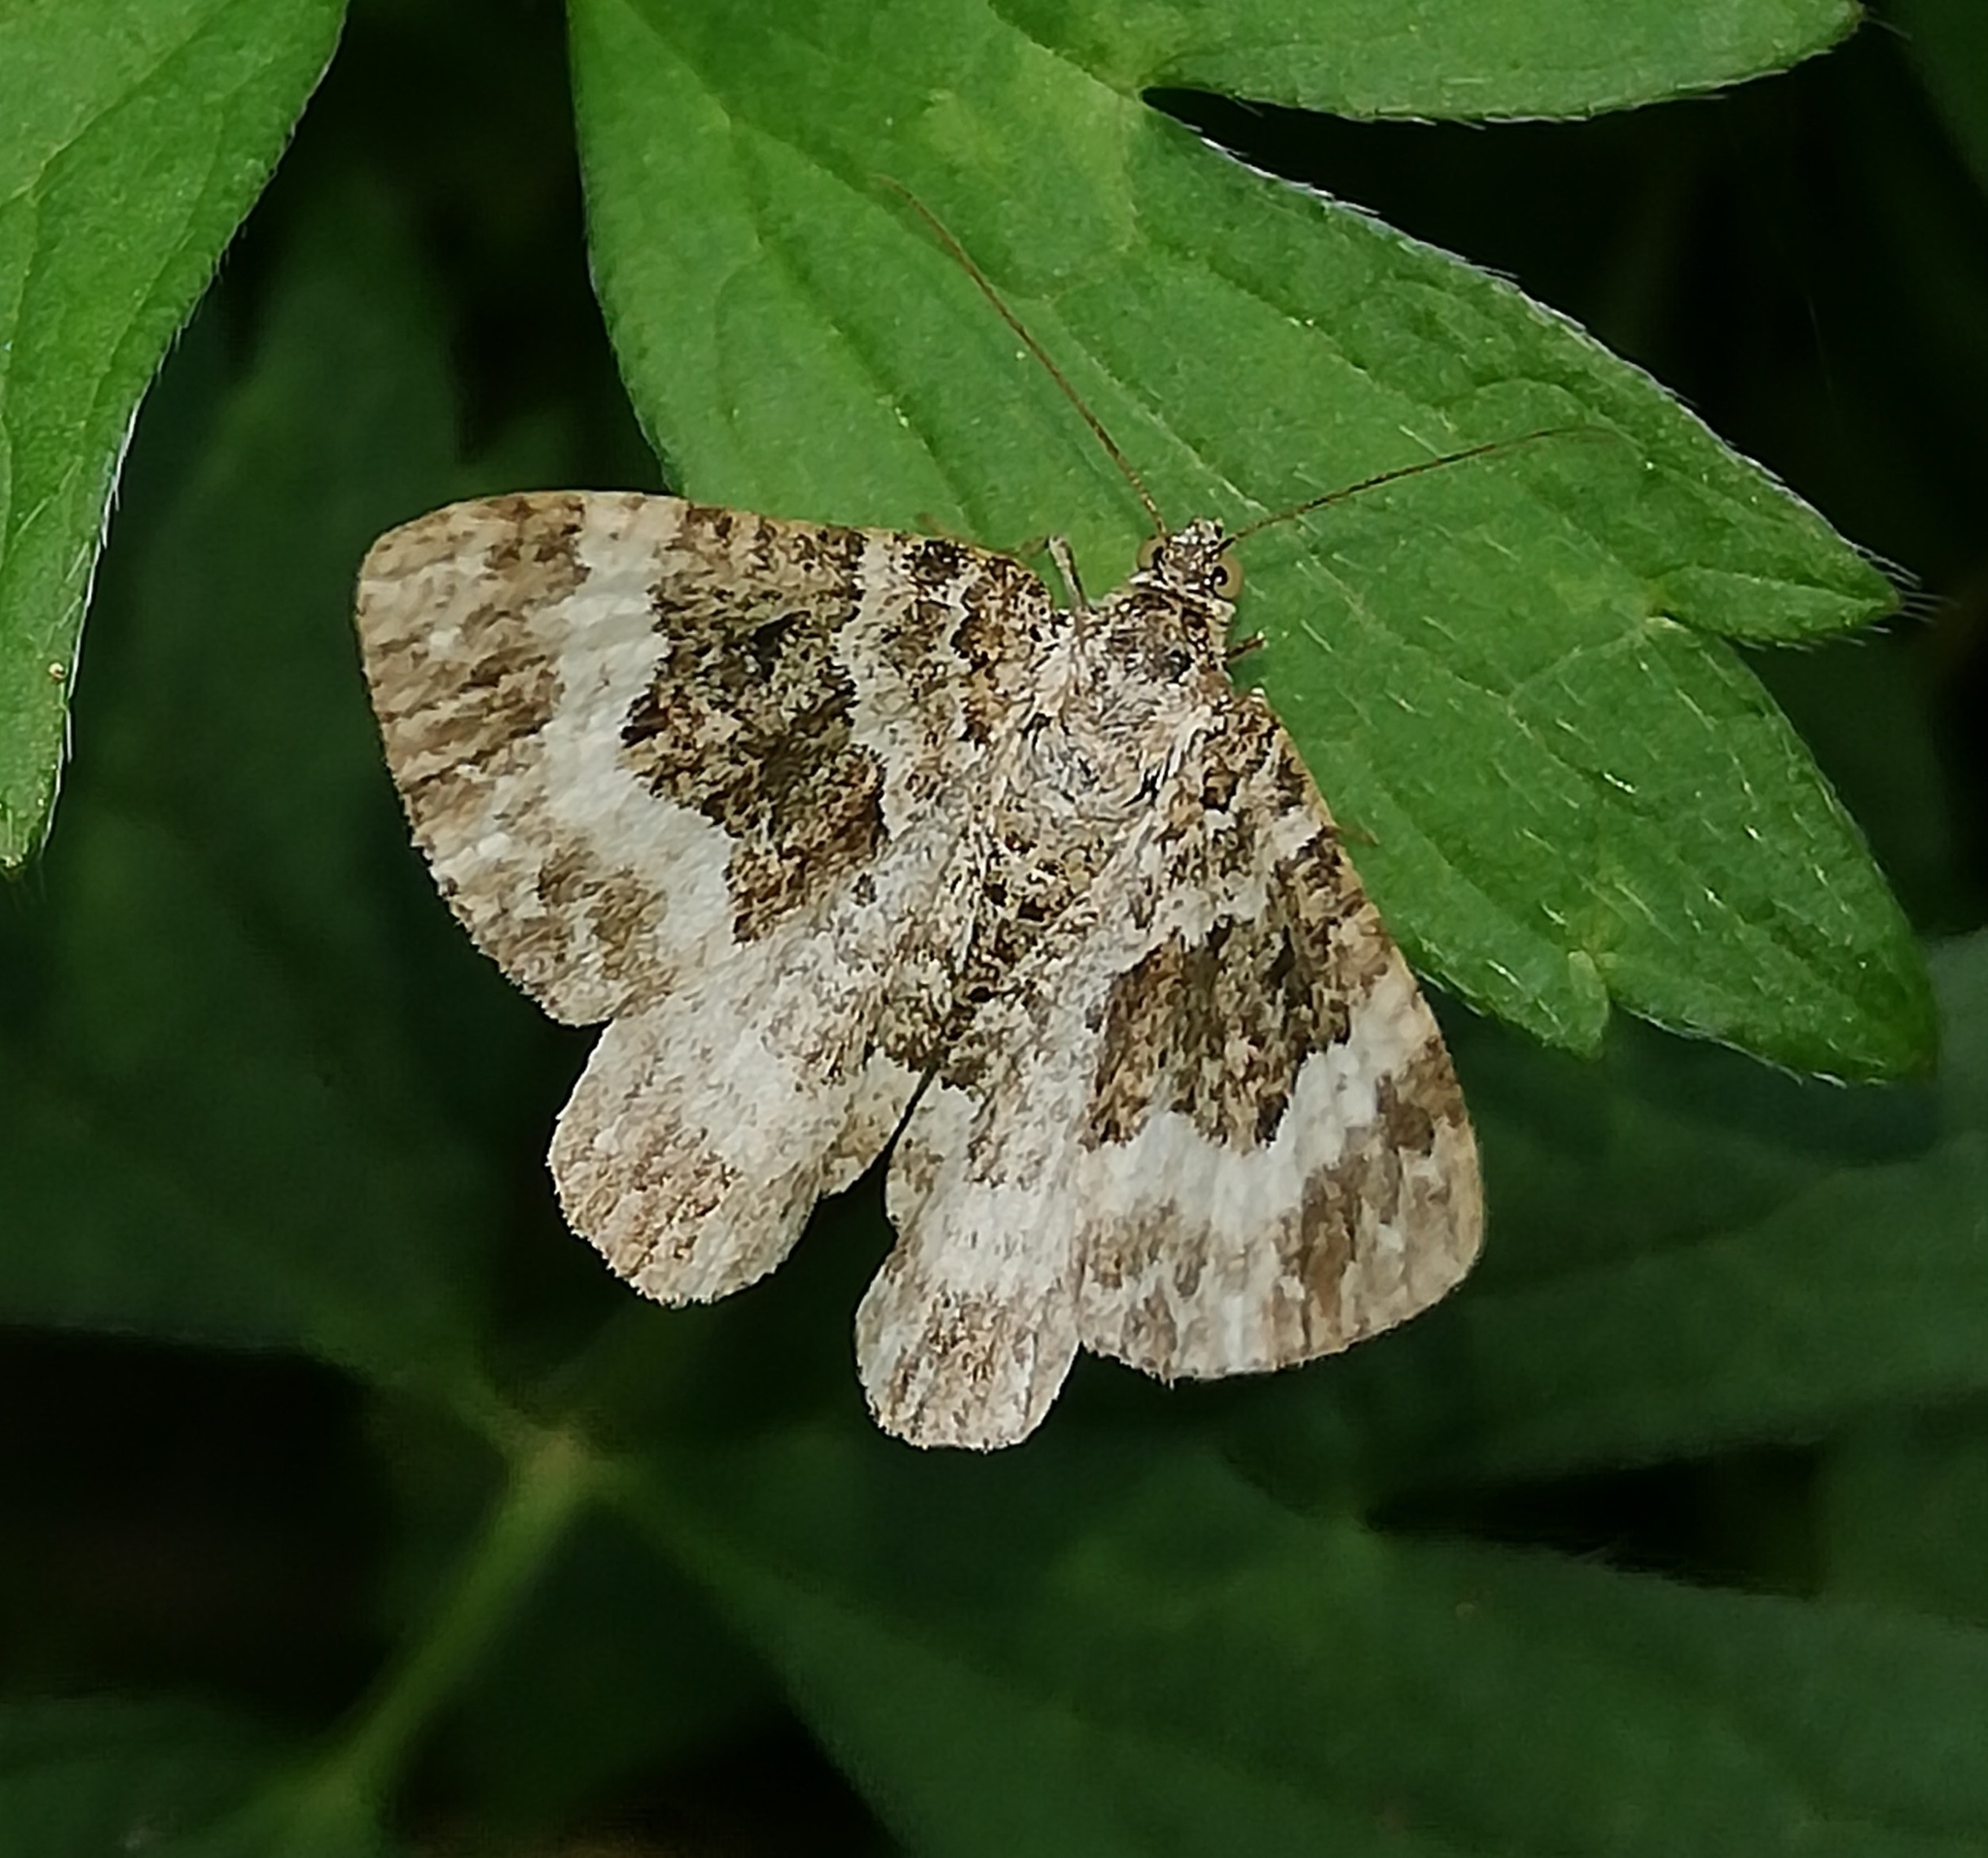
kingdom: Animalia
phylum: Arthropoda
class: Insecta
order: Lepidoptera
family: Geometridae
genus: Epirrhoe
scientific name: Epirrhoe alternata
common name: Common carpet
